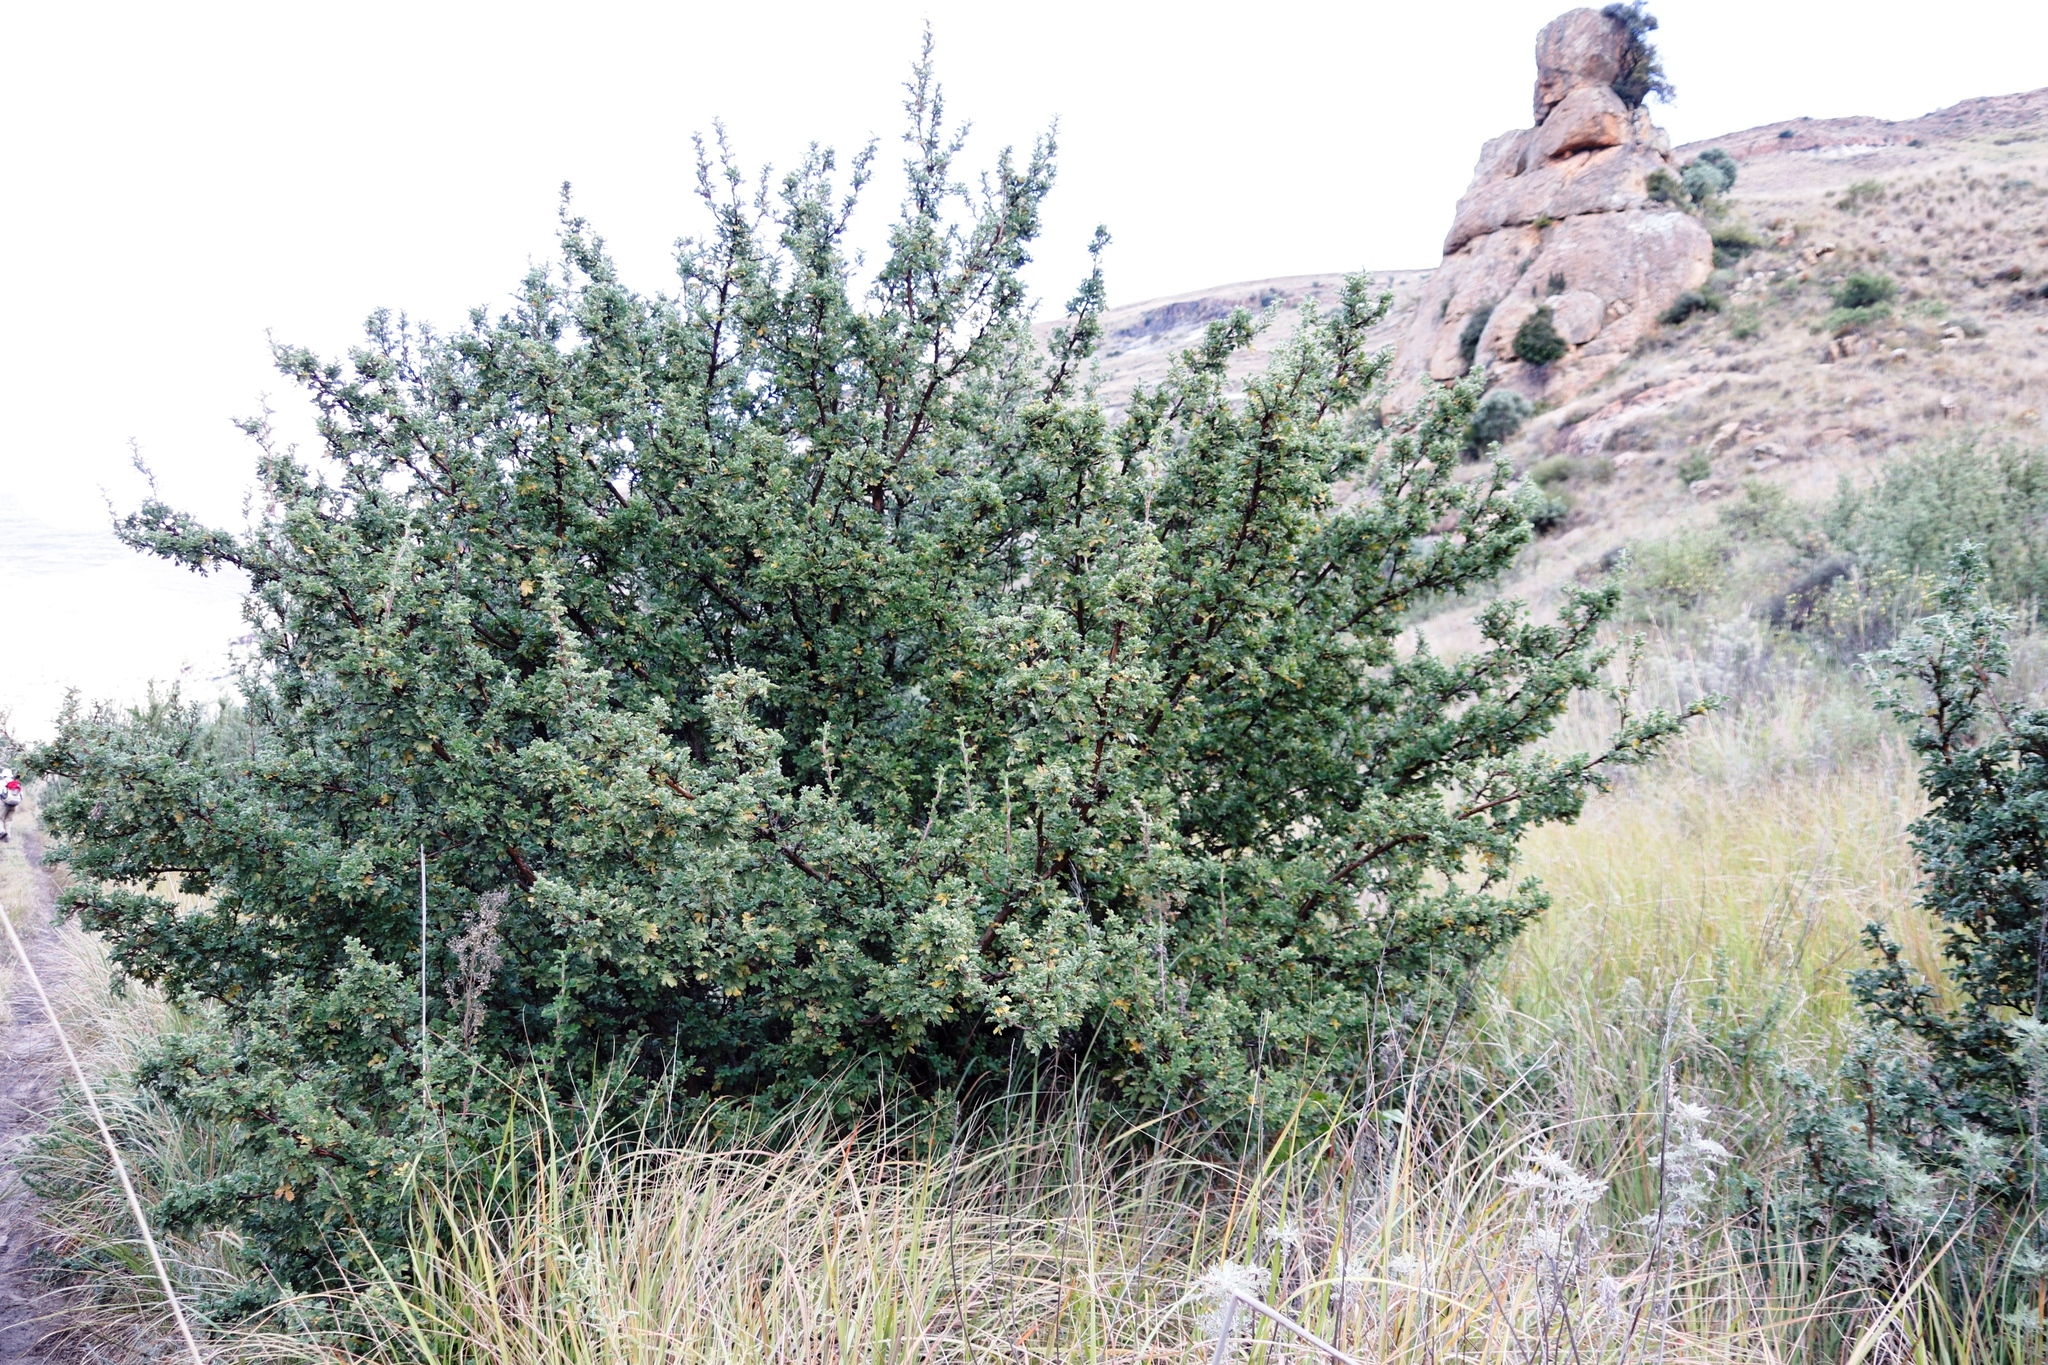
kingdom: Plantae
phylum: Tracheophyta
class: Magnoliopsida
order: Rosales
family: Rosaceae
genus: Leucosidea
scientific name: Leucosidea sericea
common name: Oldwood
